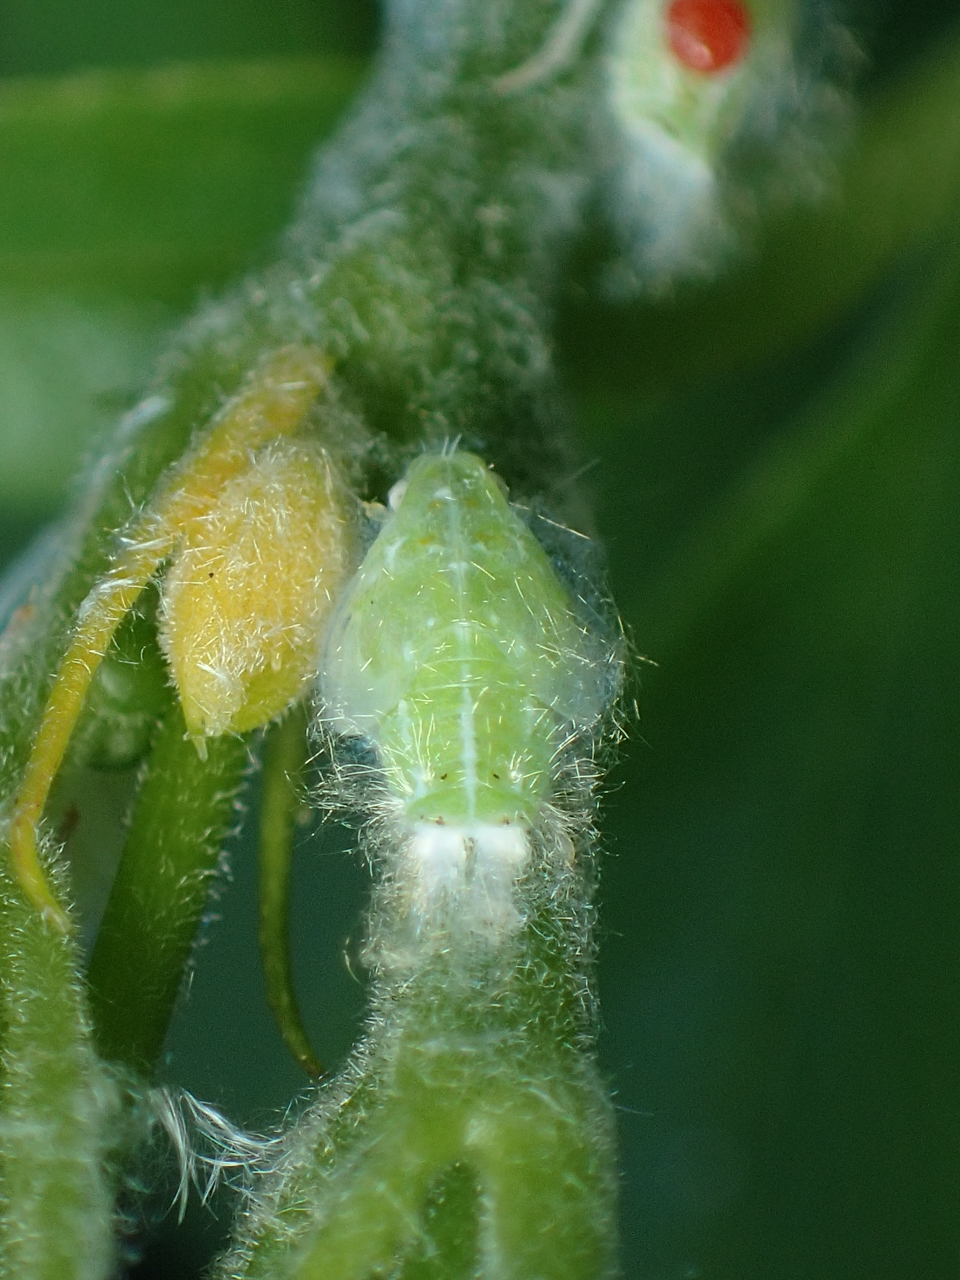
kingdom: Animalia
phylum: Arthropoda
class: Insecta
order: Hemiptera
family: Flatidae
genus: Ormenoides
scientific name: Ormenoides venusta
